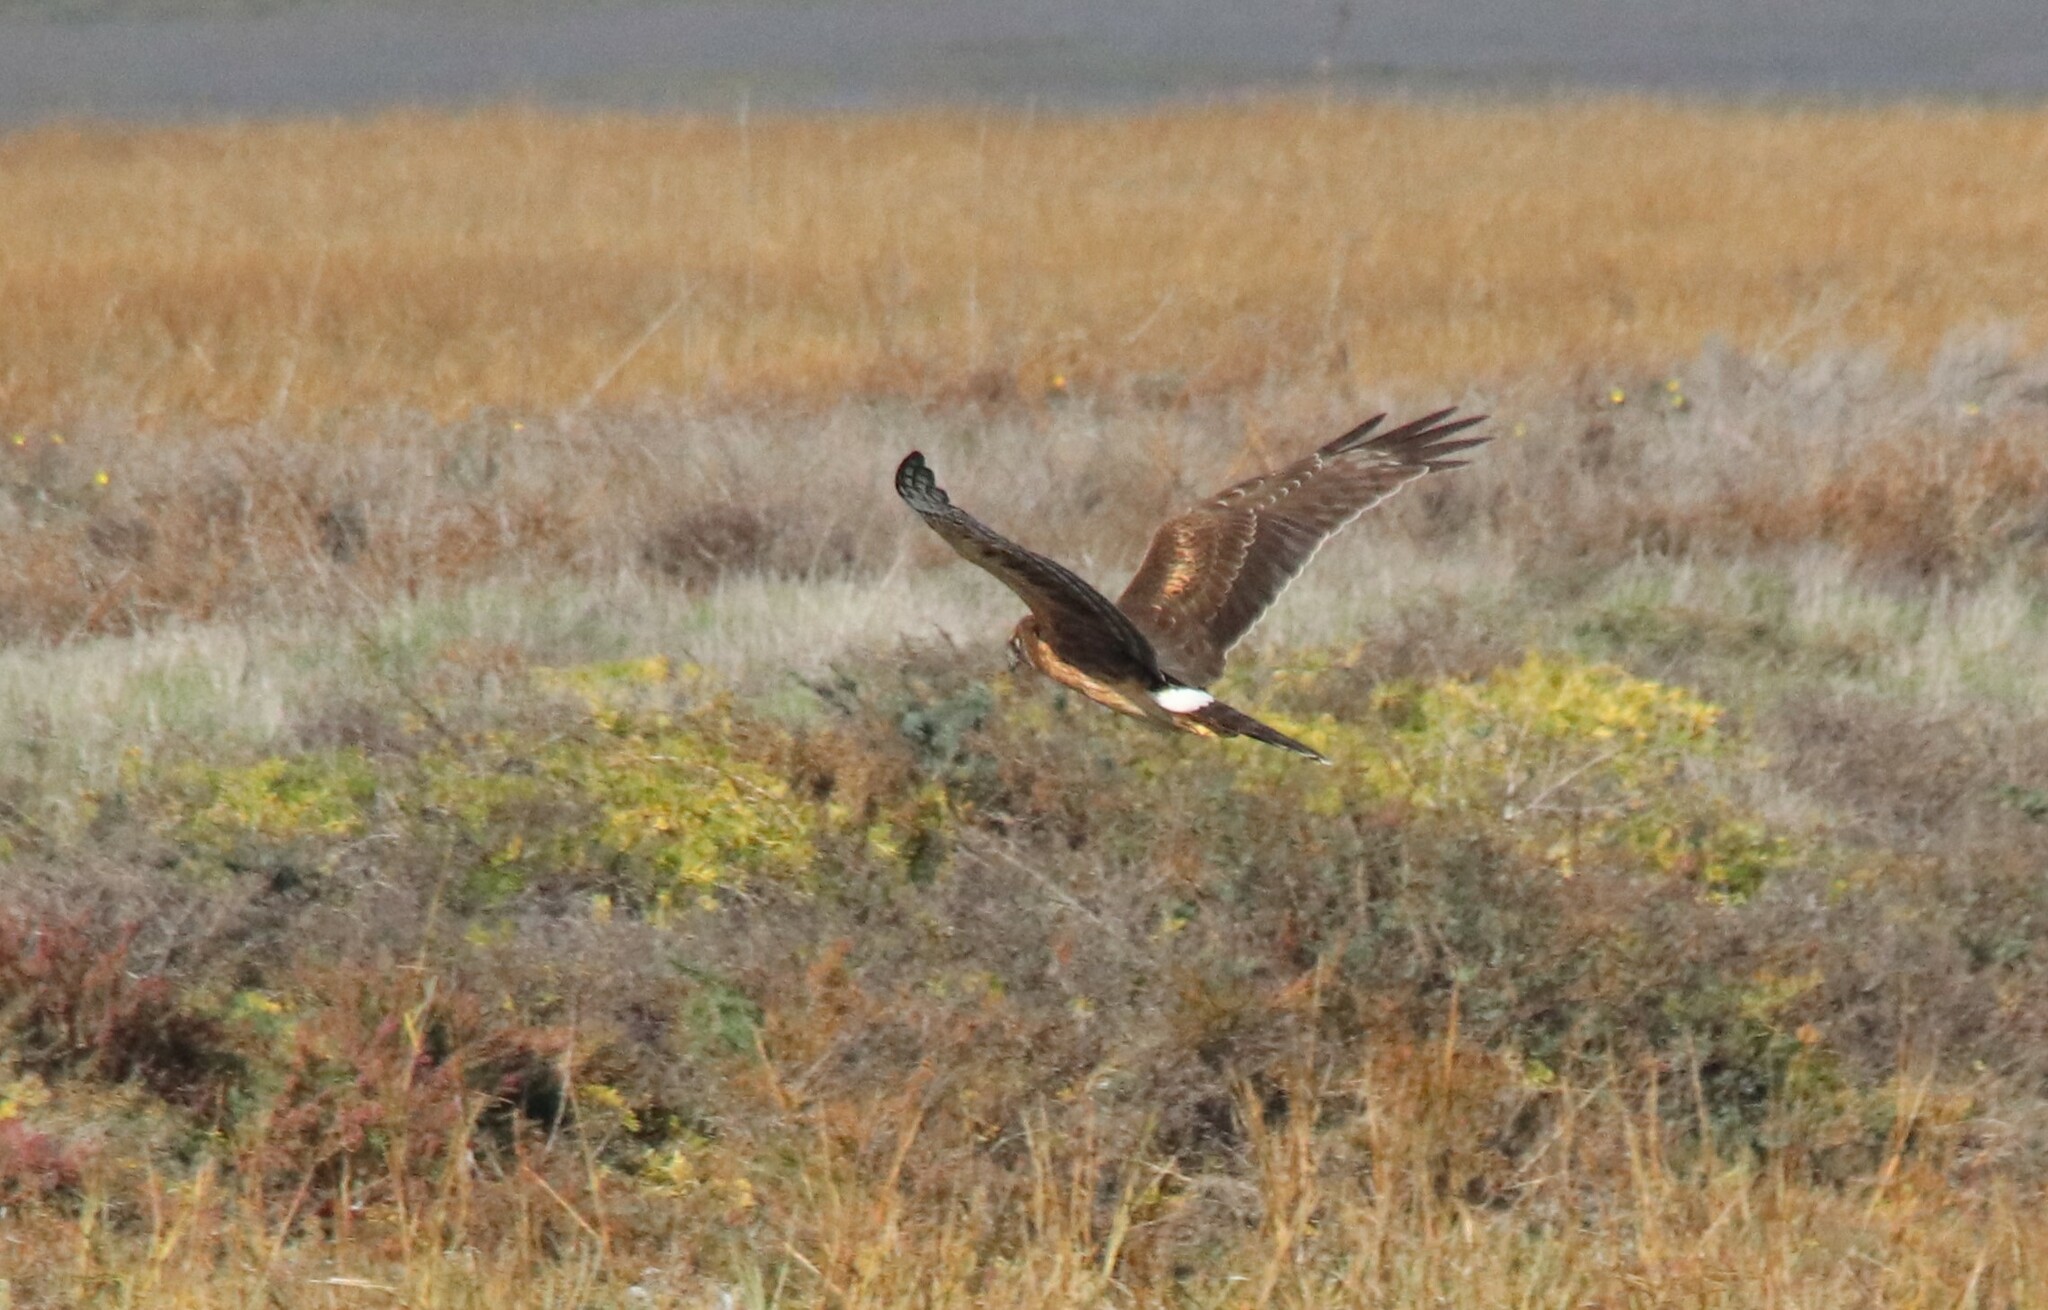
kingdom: Animalia
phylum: Chordata
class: Aves
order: Accipitriformes
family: Accipitridae
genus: Circus
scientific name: Circus cyaneus
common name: Hen harrier
